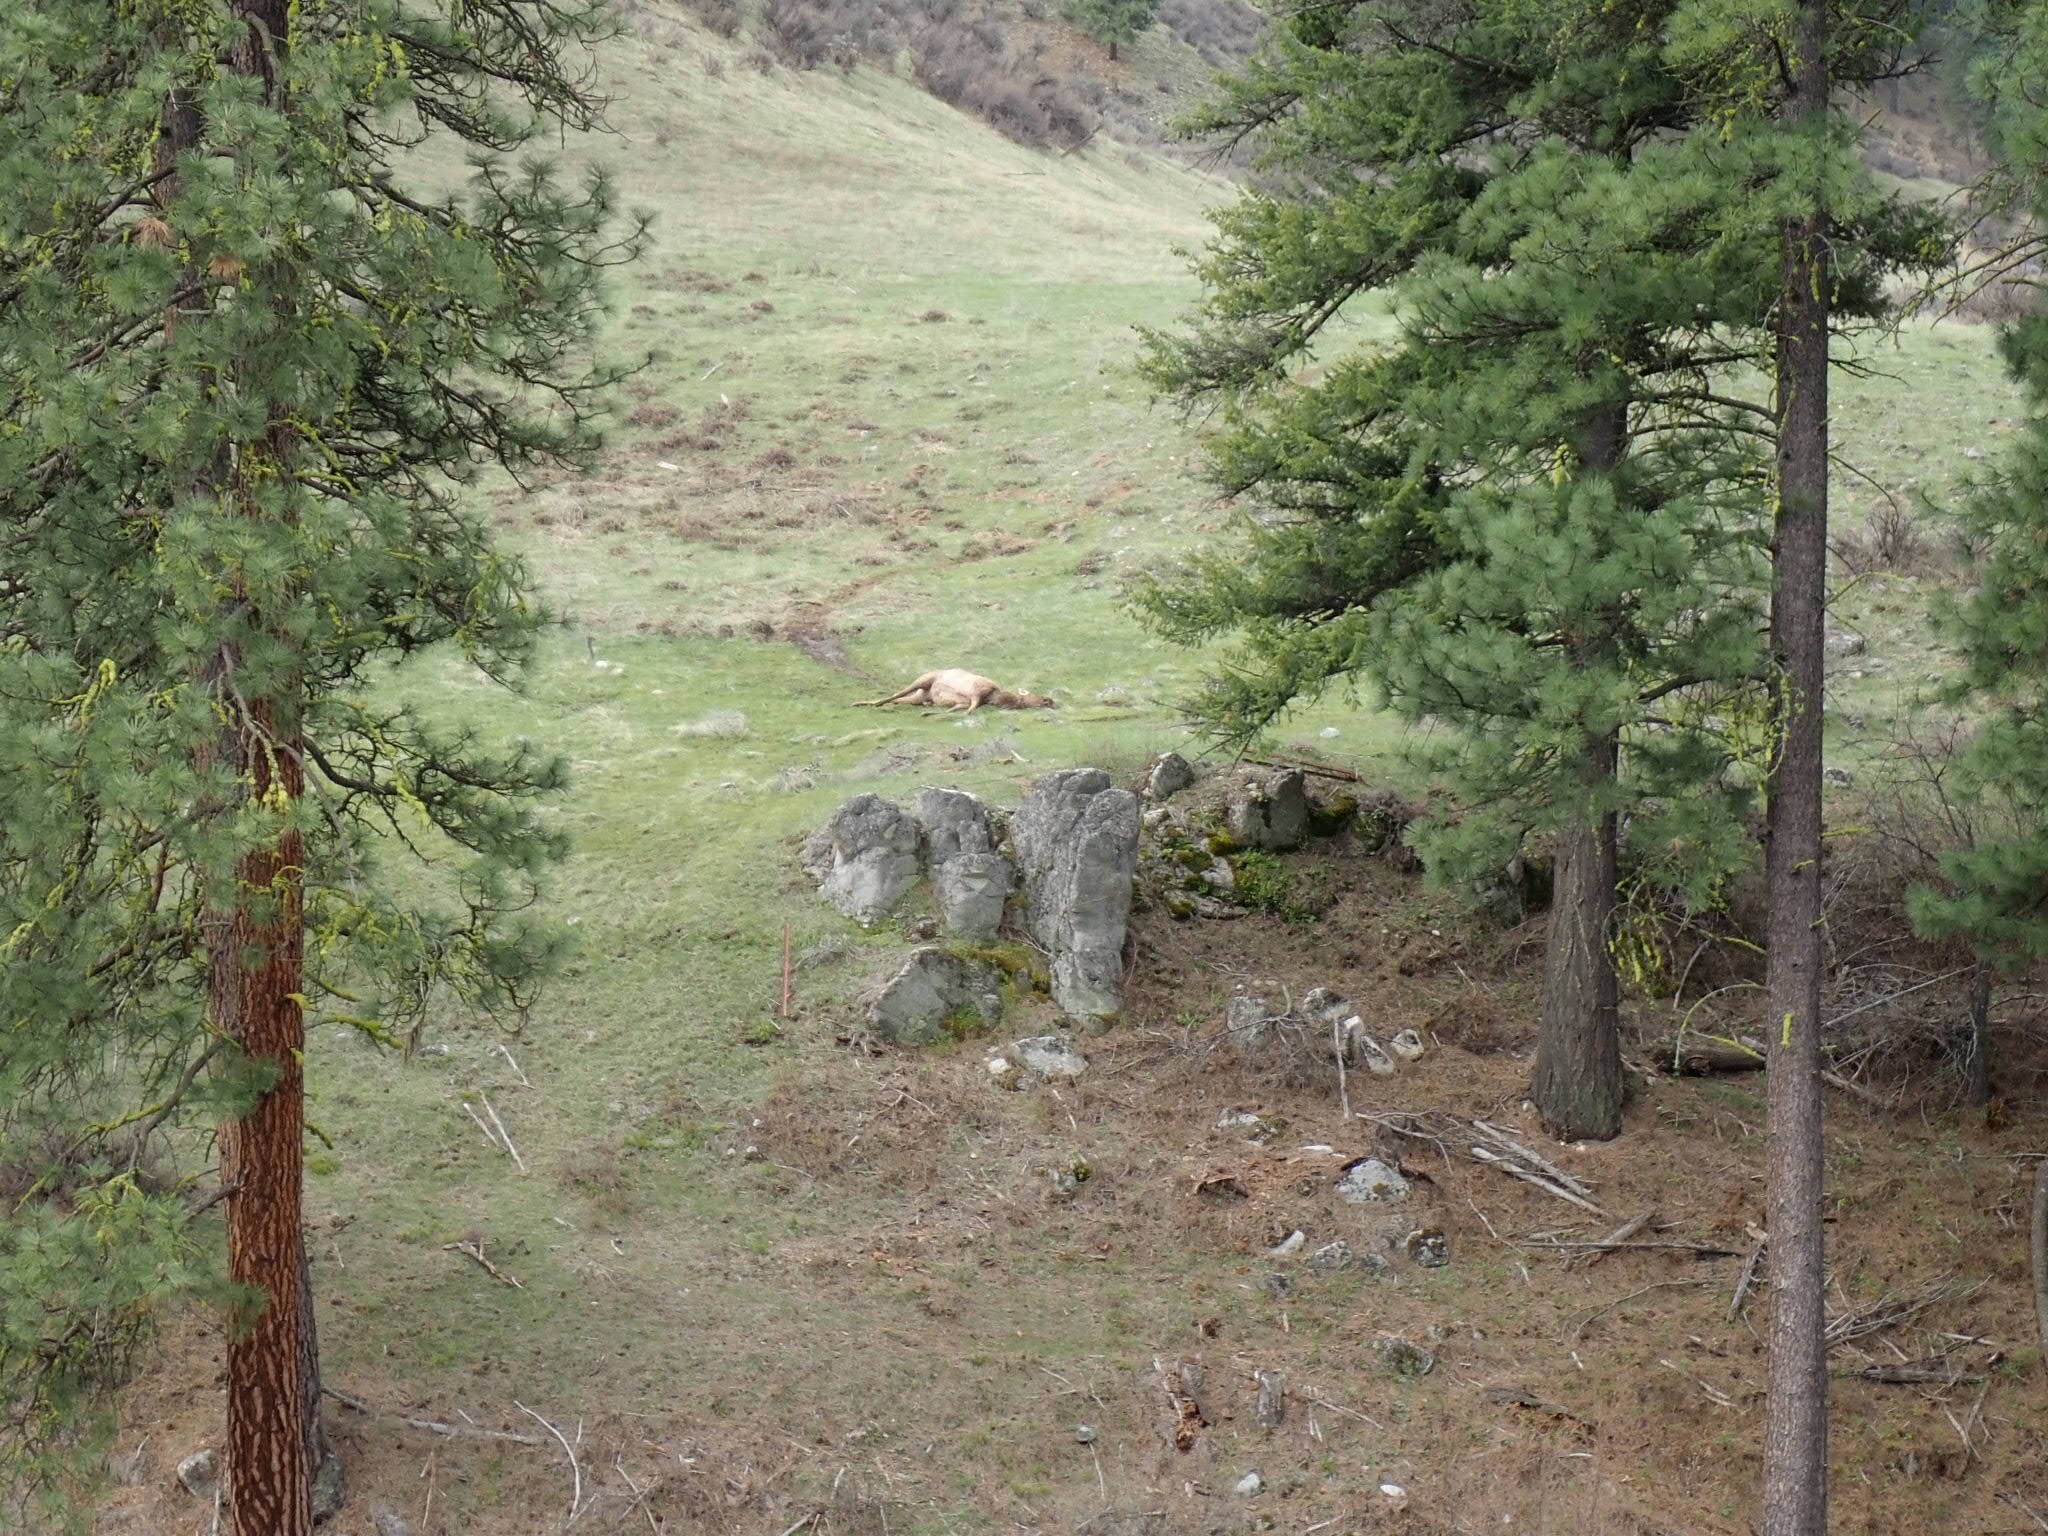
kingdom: Animalia
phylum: Chordata
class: Mammalia
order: Artiodactyla
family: Cervidae
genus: Cervus
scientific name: Cervus elaphus
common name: Red deer
